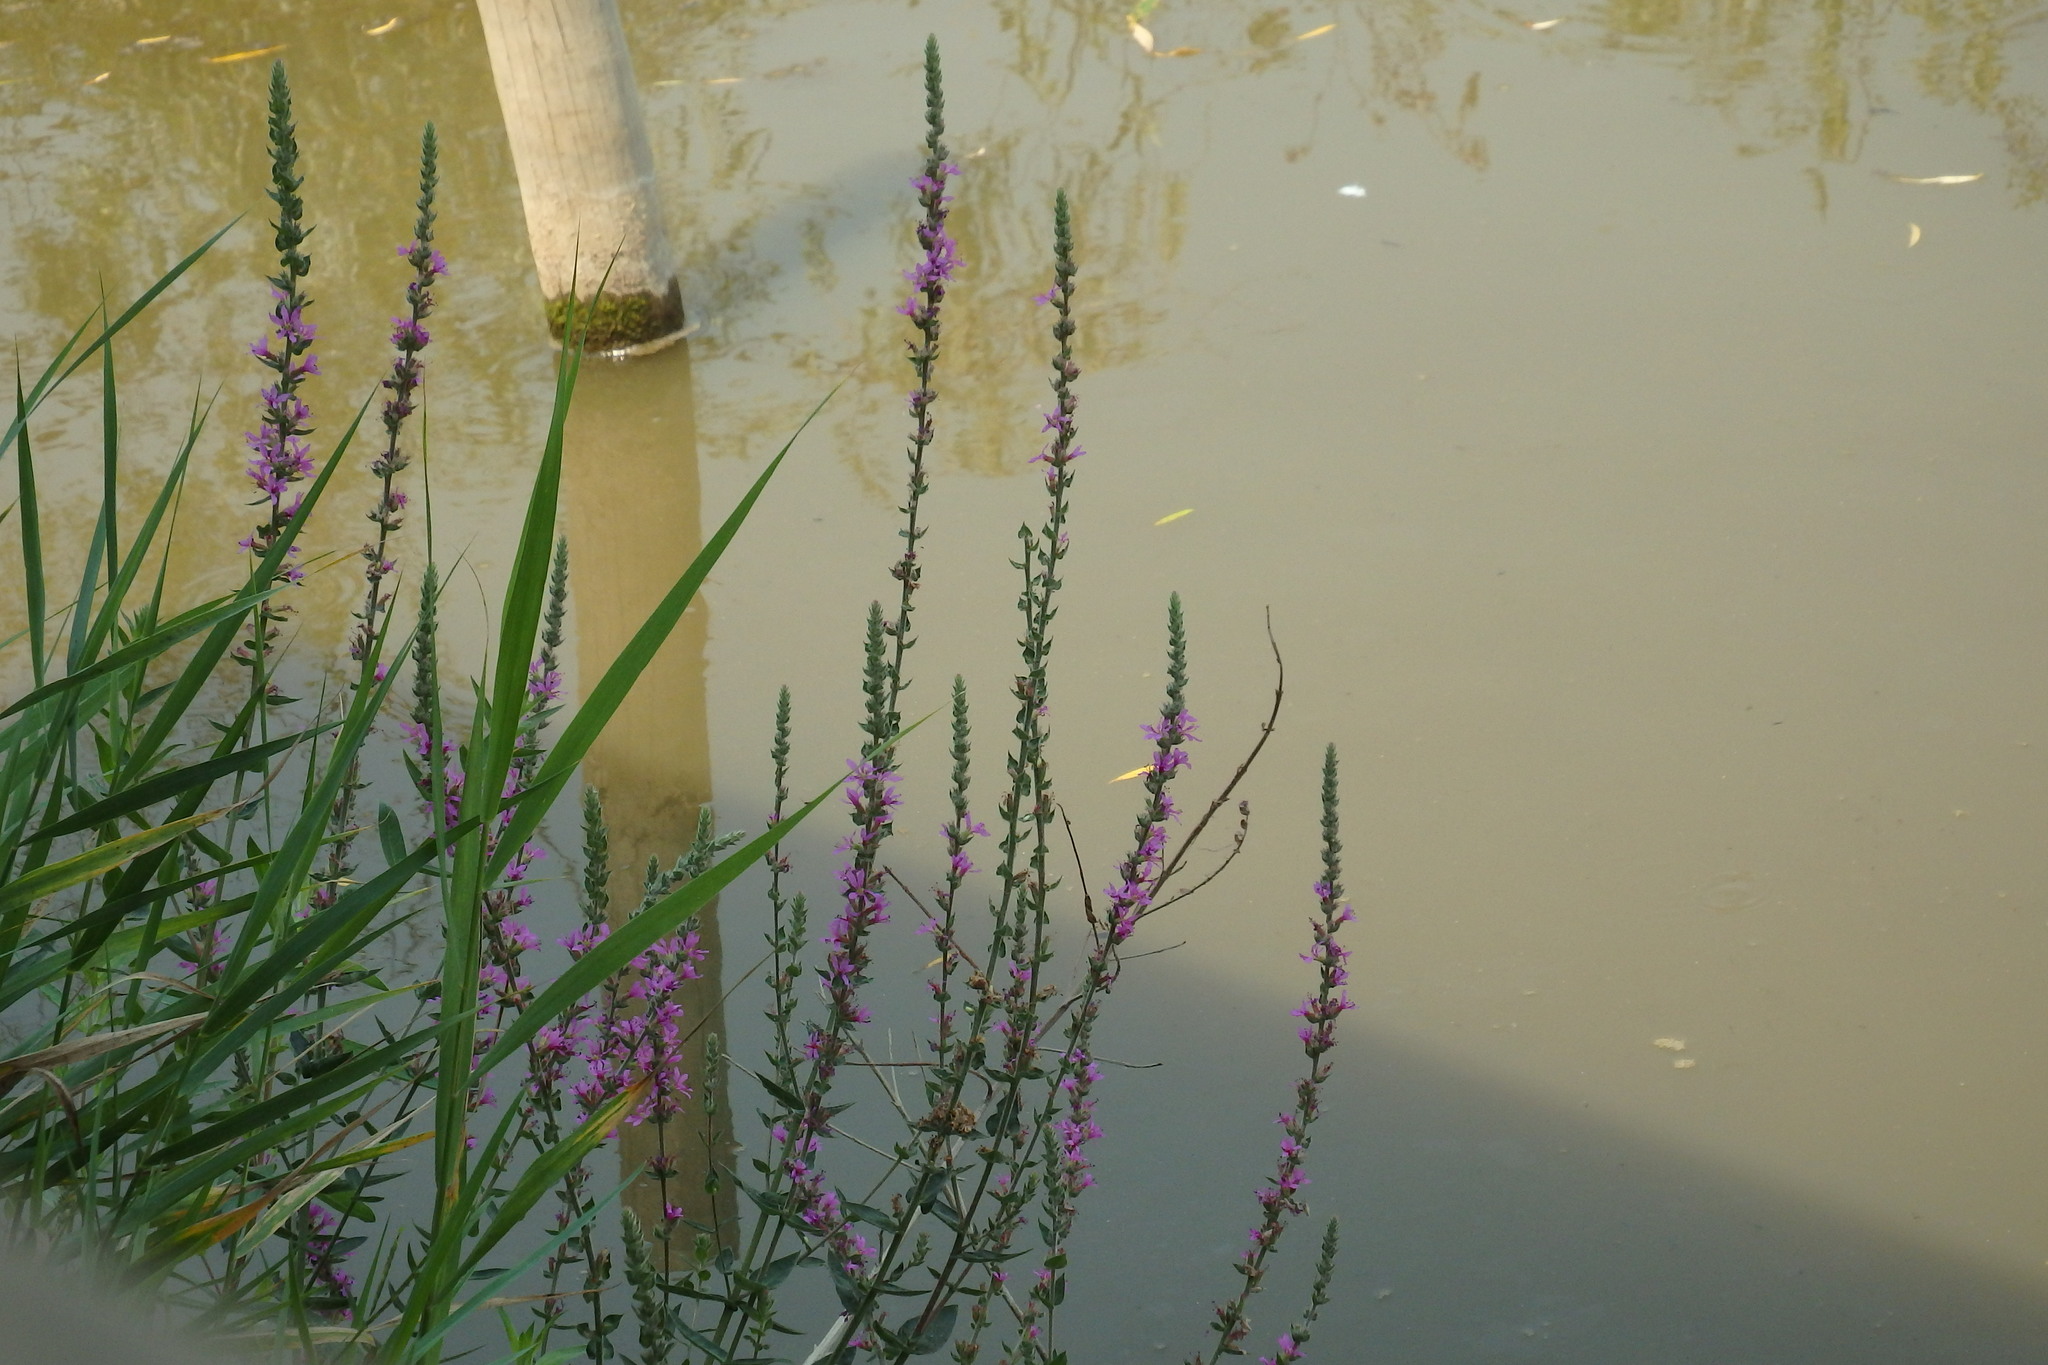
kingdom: Plantae
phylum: Tracheophyta
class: Magnoliopsida
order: Myrtales
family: Lythraceae
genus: Lythrum
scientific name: Lythrum salicaria
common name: Purple loosestrife
